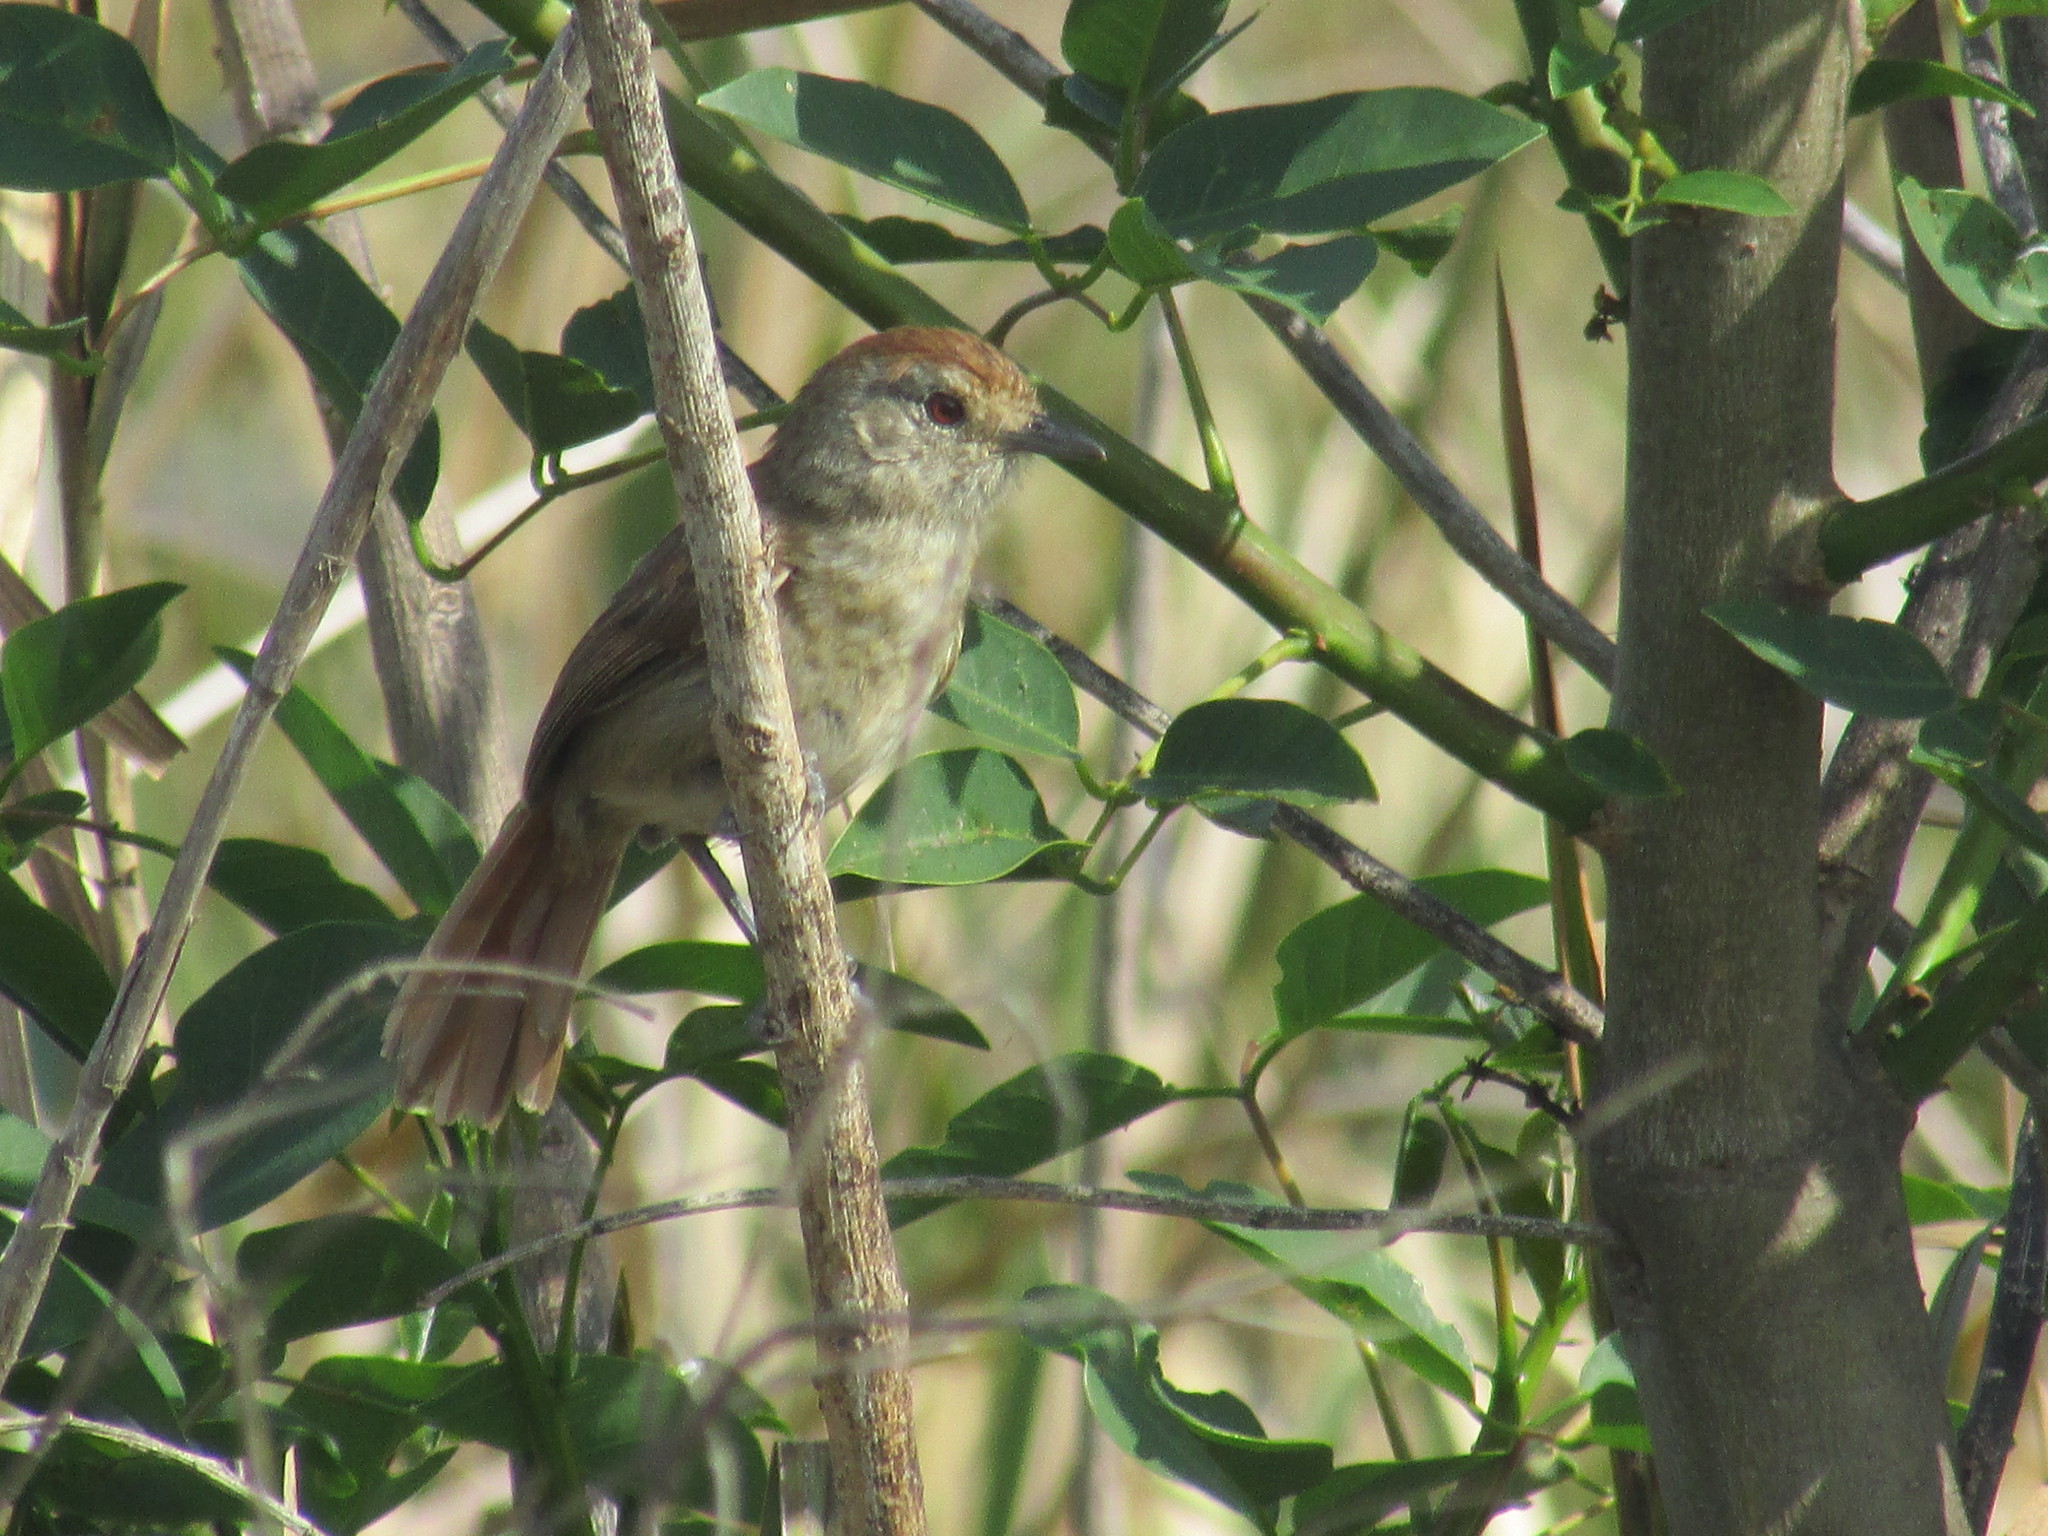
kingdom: Animalia
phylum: Chordata
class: Aves
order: Passeriformes
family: Thamnophilidae
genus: Thamnophilus
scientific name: Thamnophilus ruficapillus
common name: Rufous-capped antshrike
